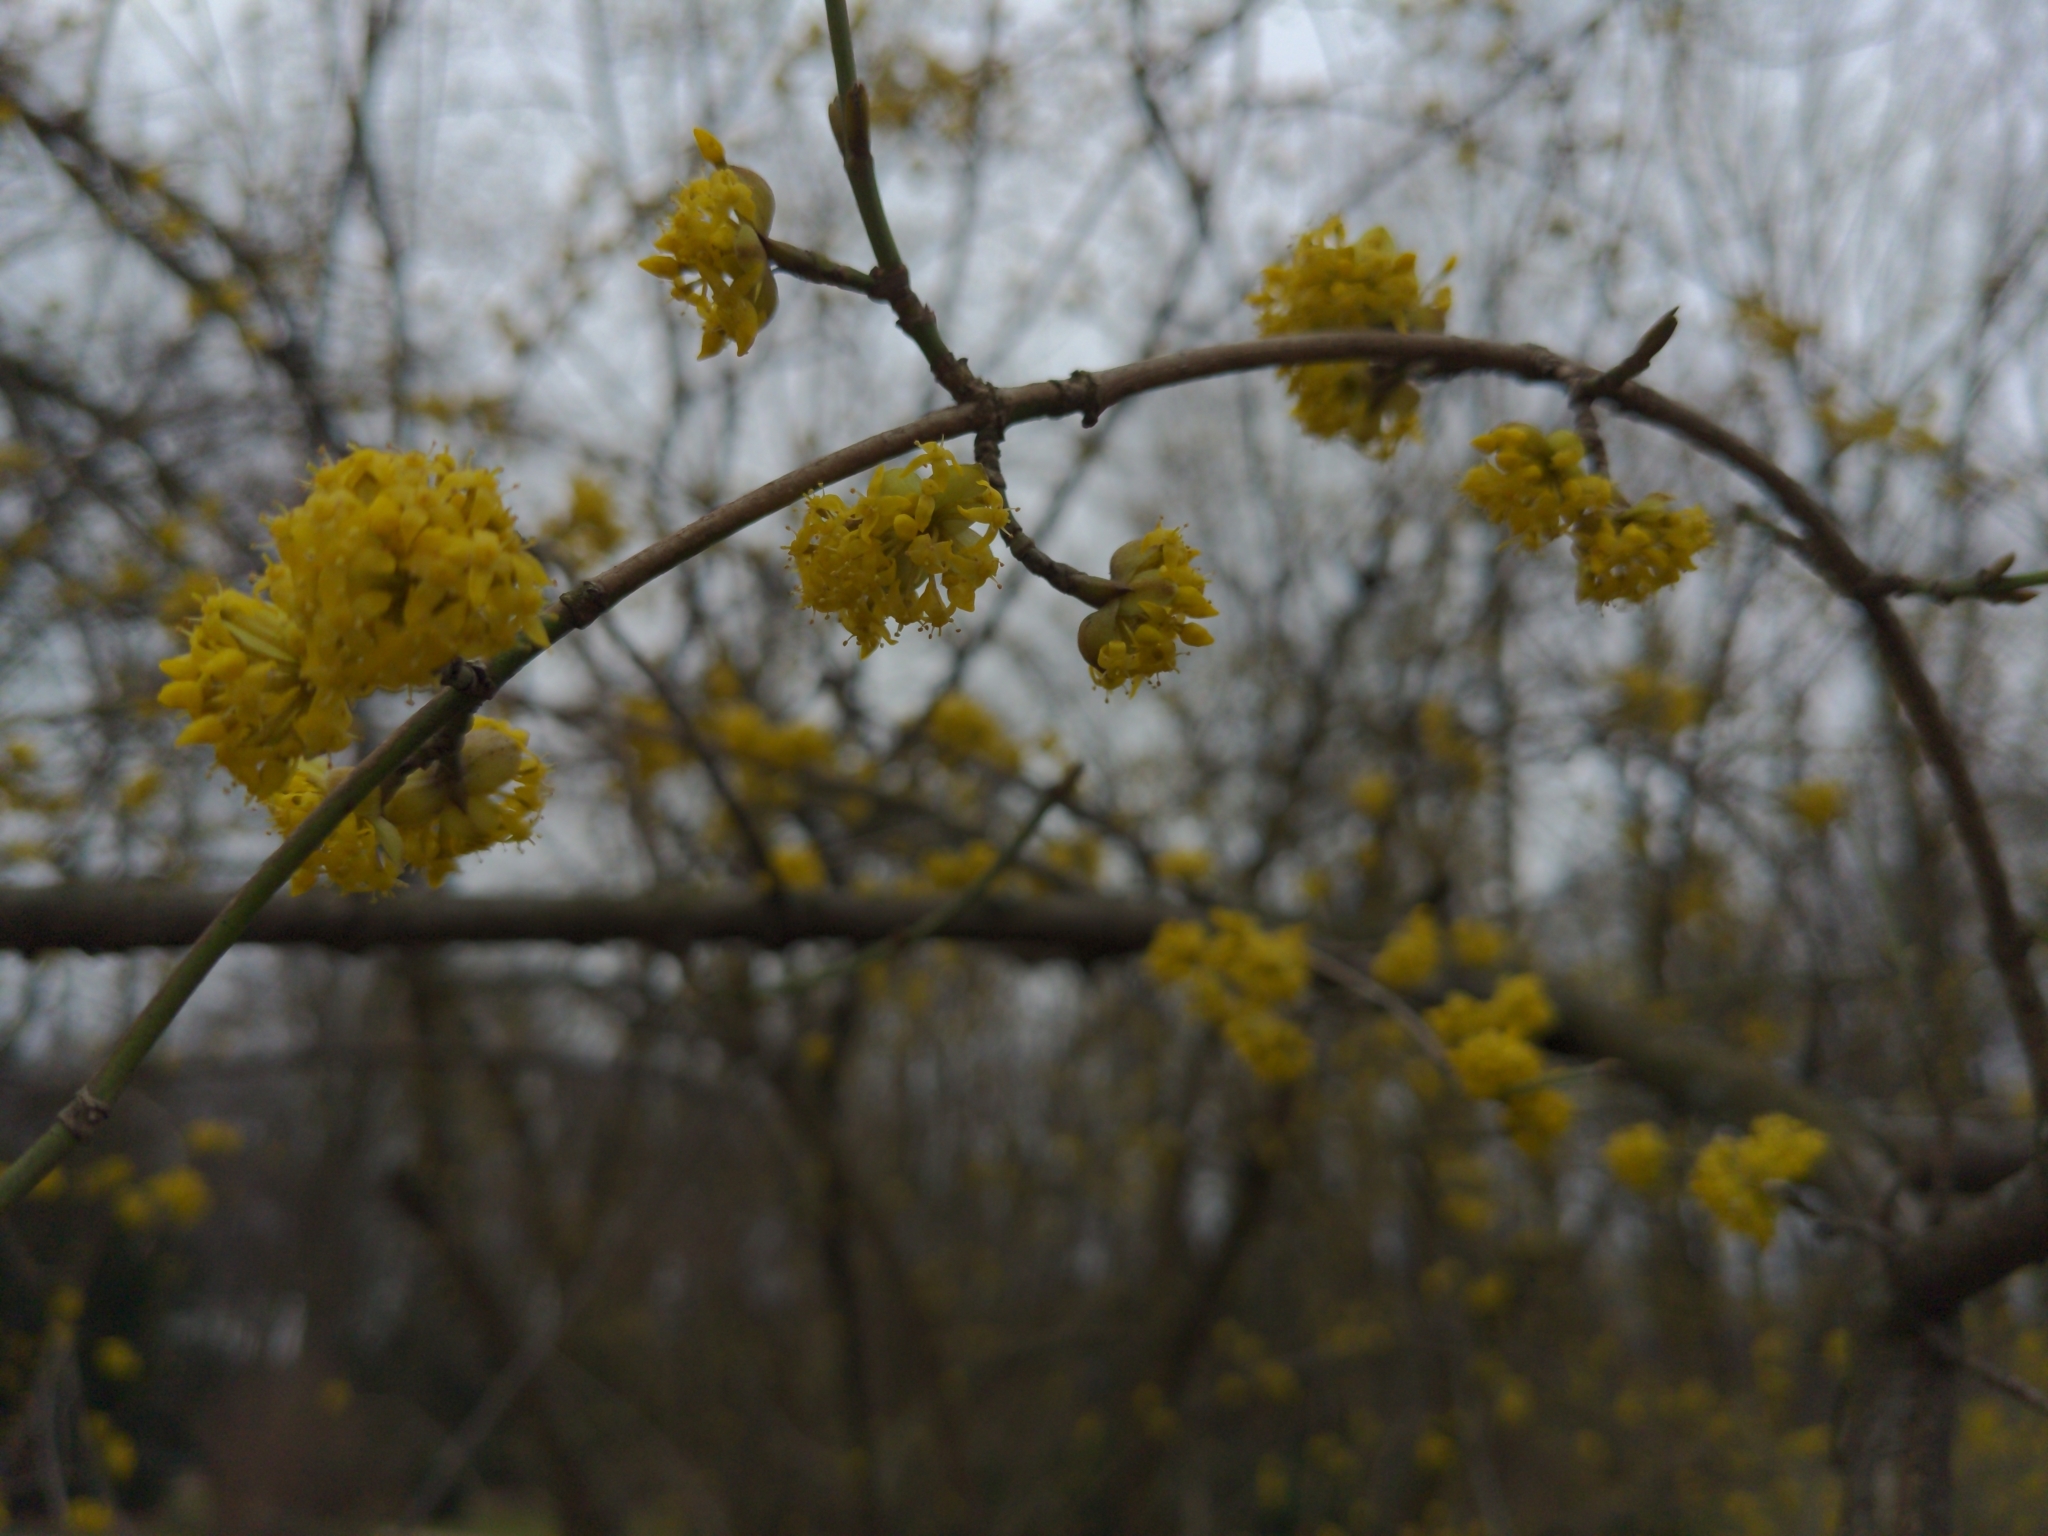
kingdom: Plantae
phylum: Tracheophyta
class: Magnoliopsida
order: Cornales
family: Cornaceae
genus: Cornus
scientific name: Cornus mas
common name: Cornelian-cherry
